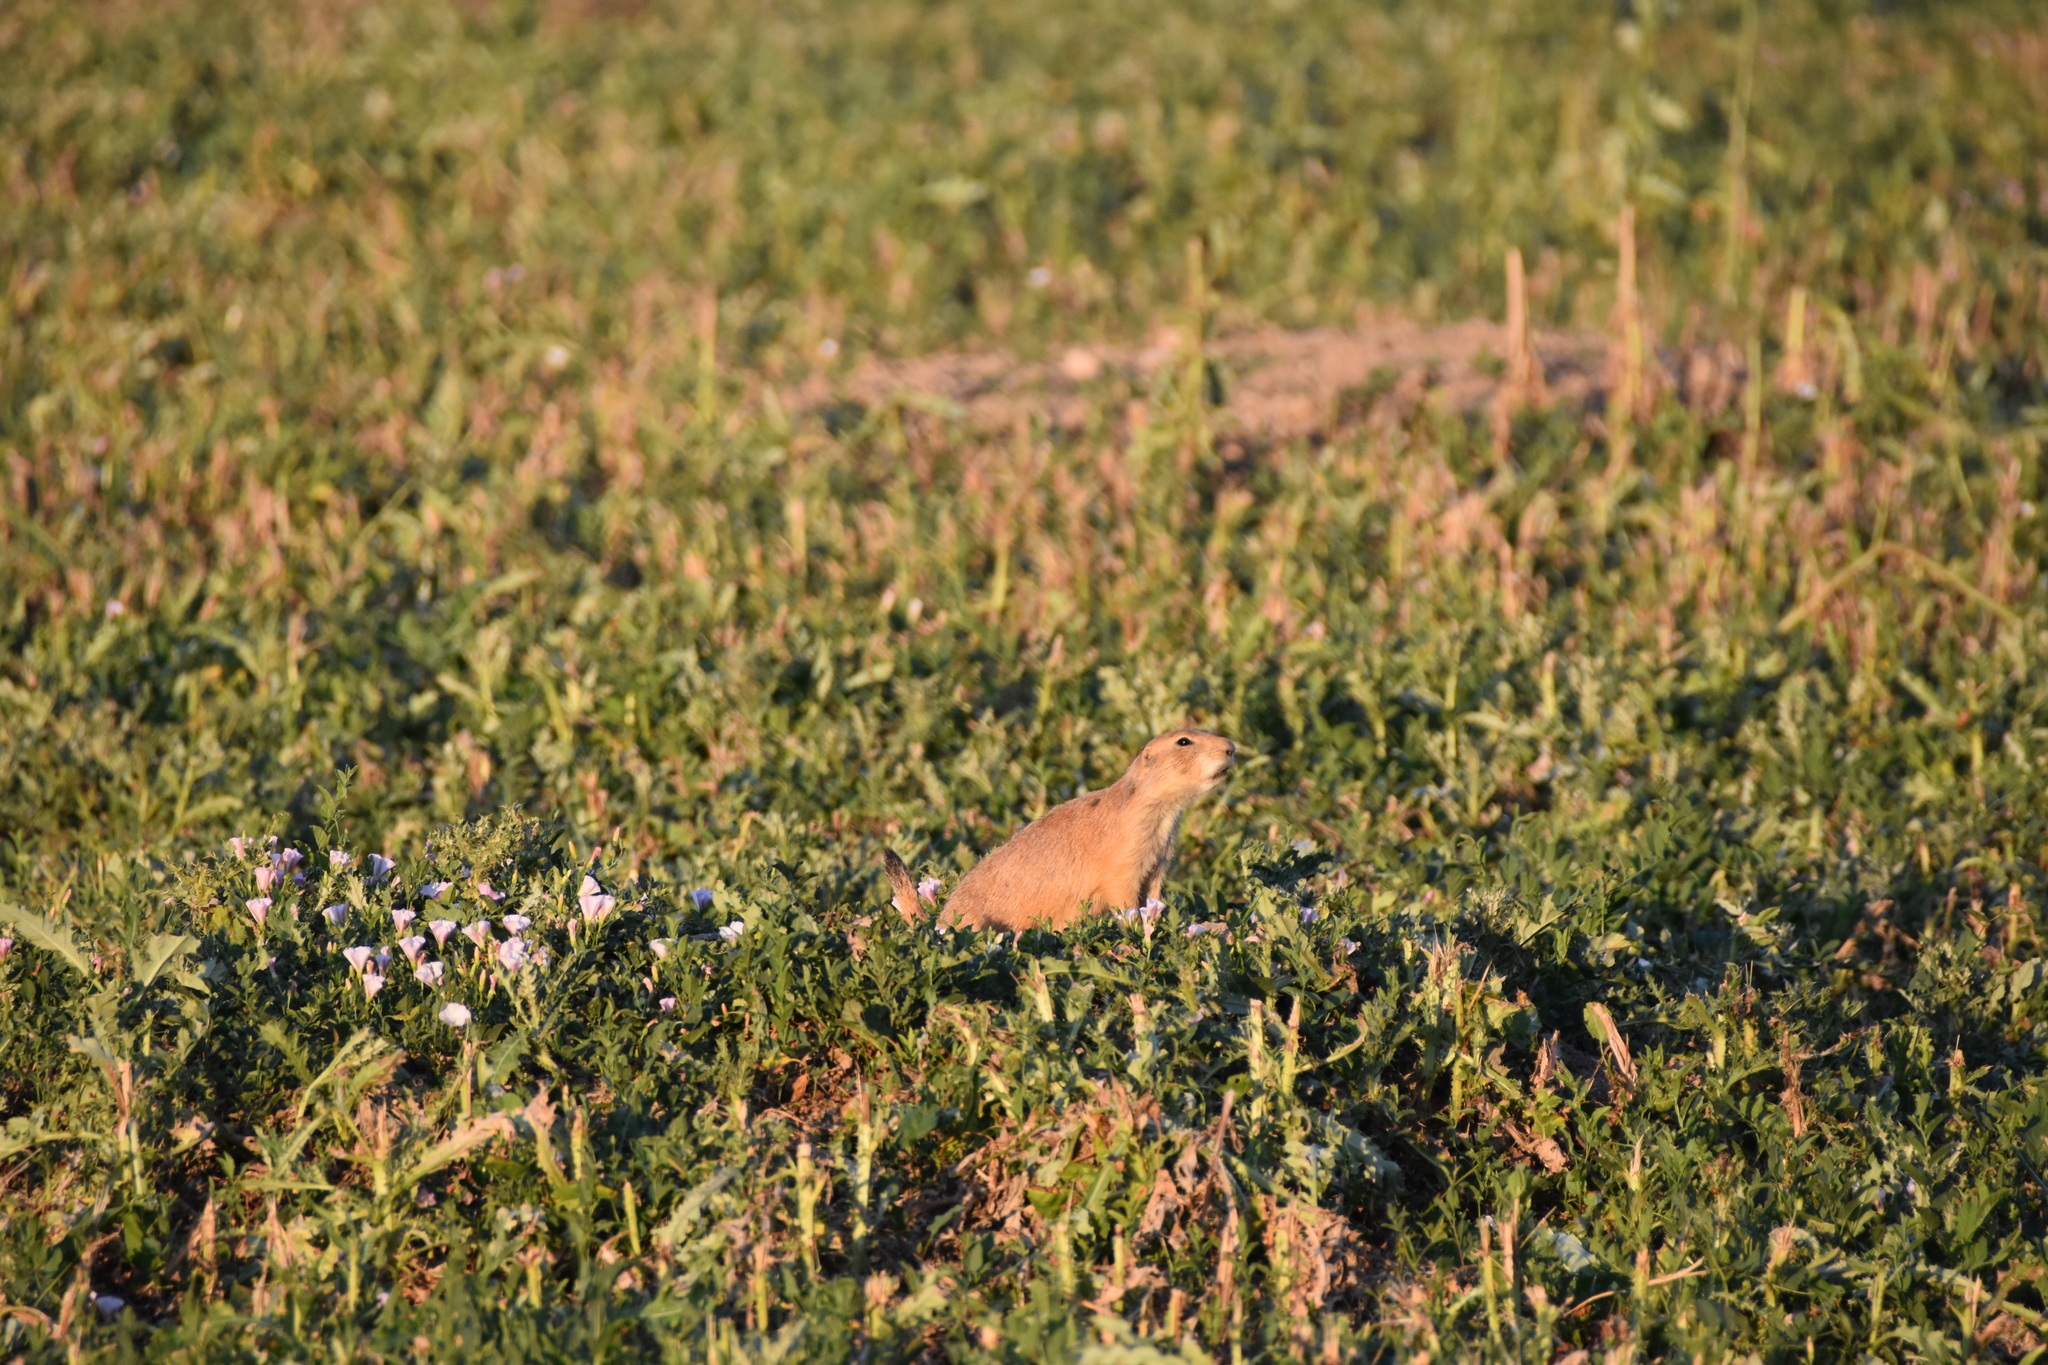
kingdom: Plantae
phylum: Tracheophyta
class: Magnoliopsida
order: Solanales
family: Convolvulaceae
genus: Convolvulus
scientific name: Convolvulus arvensis
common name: Field bindweed
